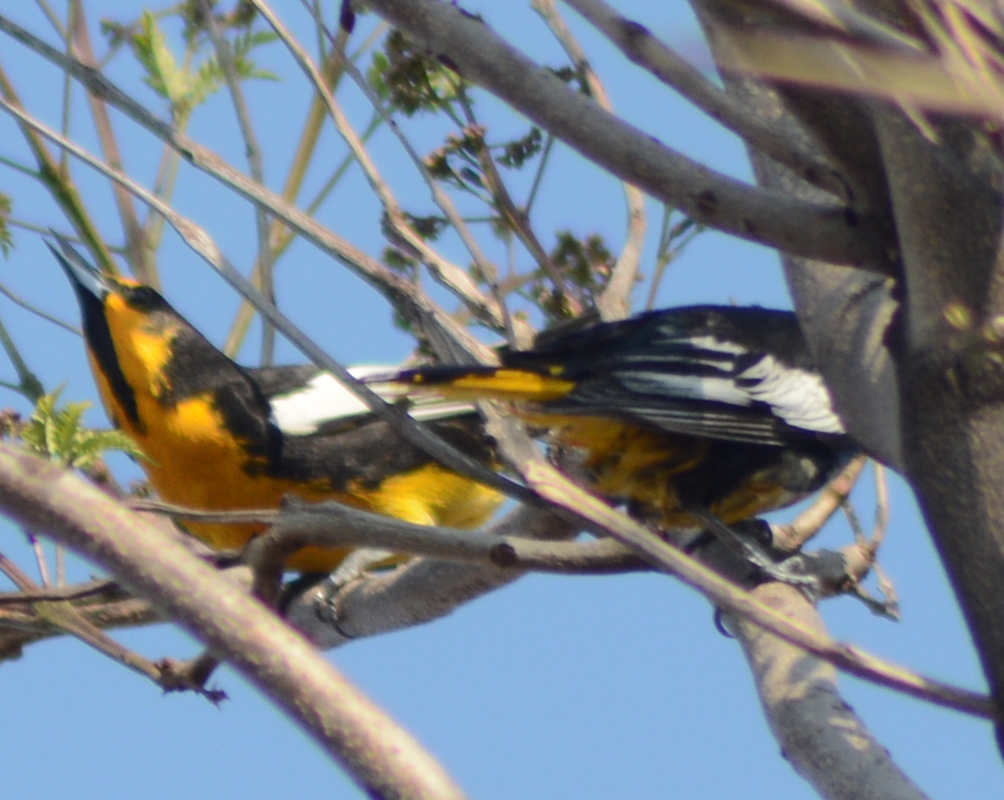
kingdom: Animalia
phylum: Chordata
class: Aves
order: Passeriformes
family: Icteridae
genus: Icterus
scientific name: Icterus abeillei
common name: Black-backed oriole
